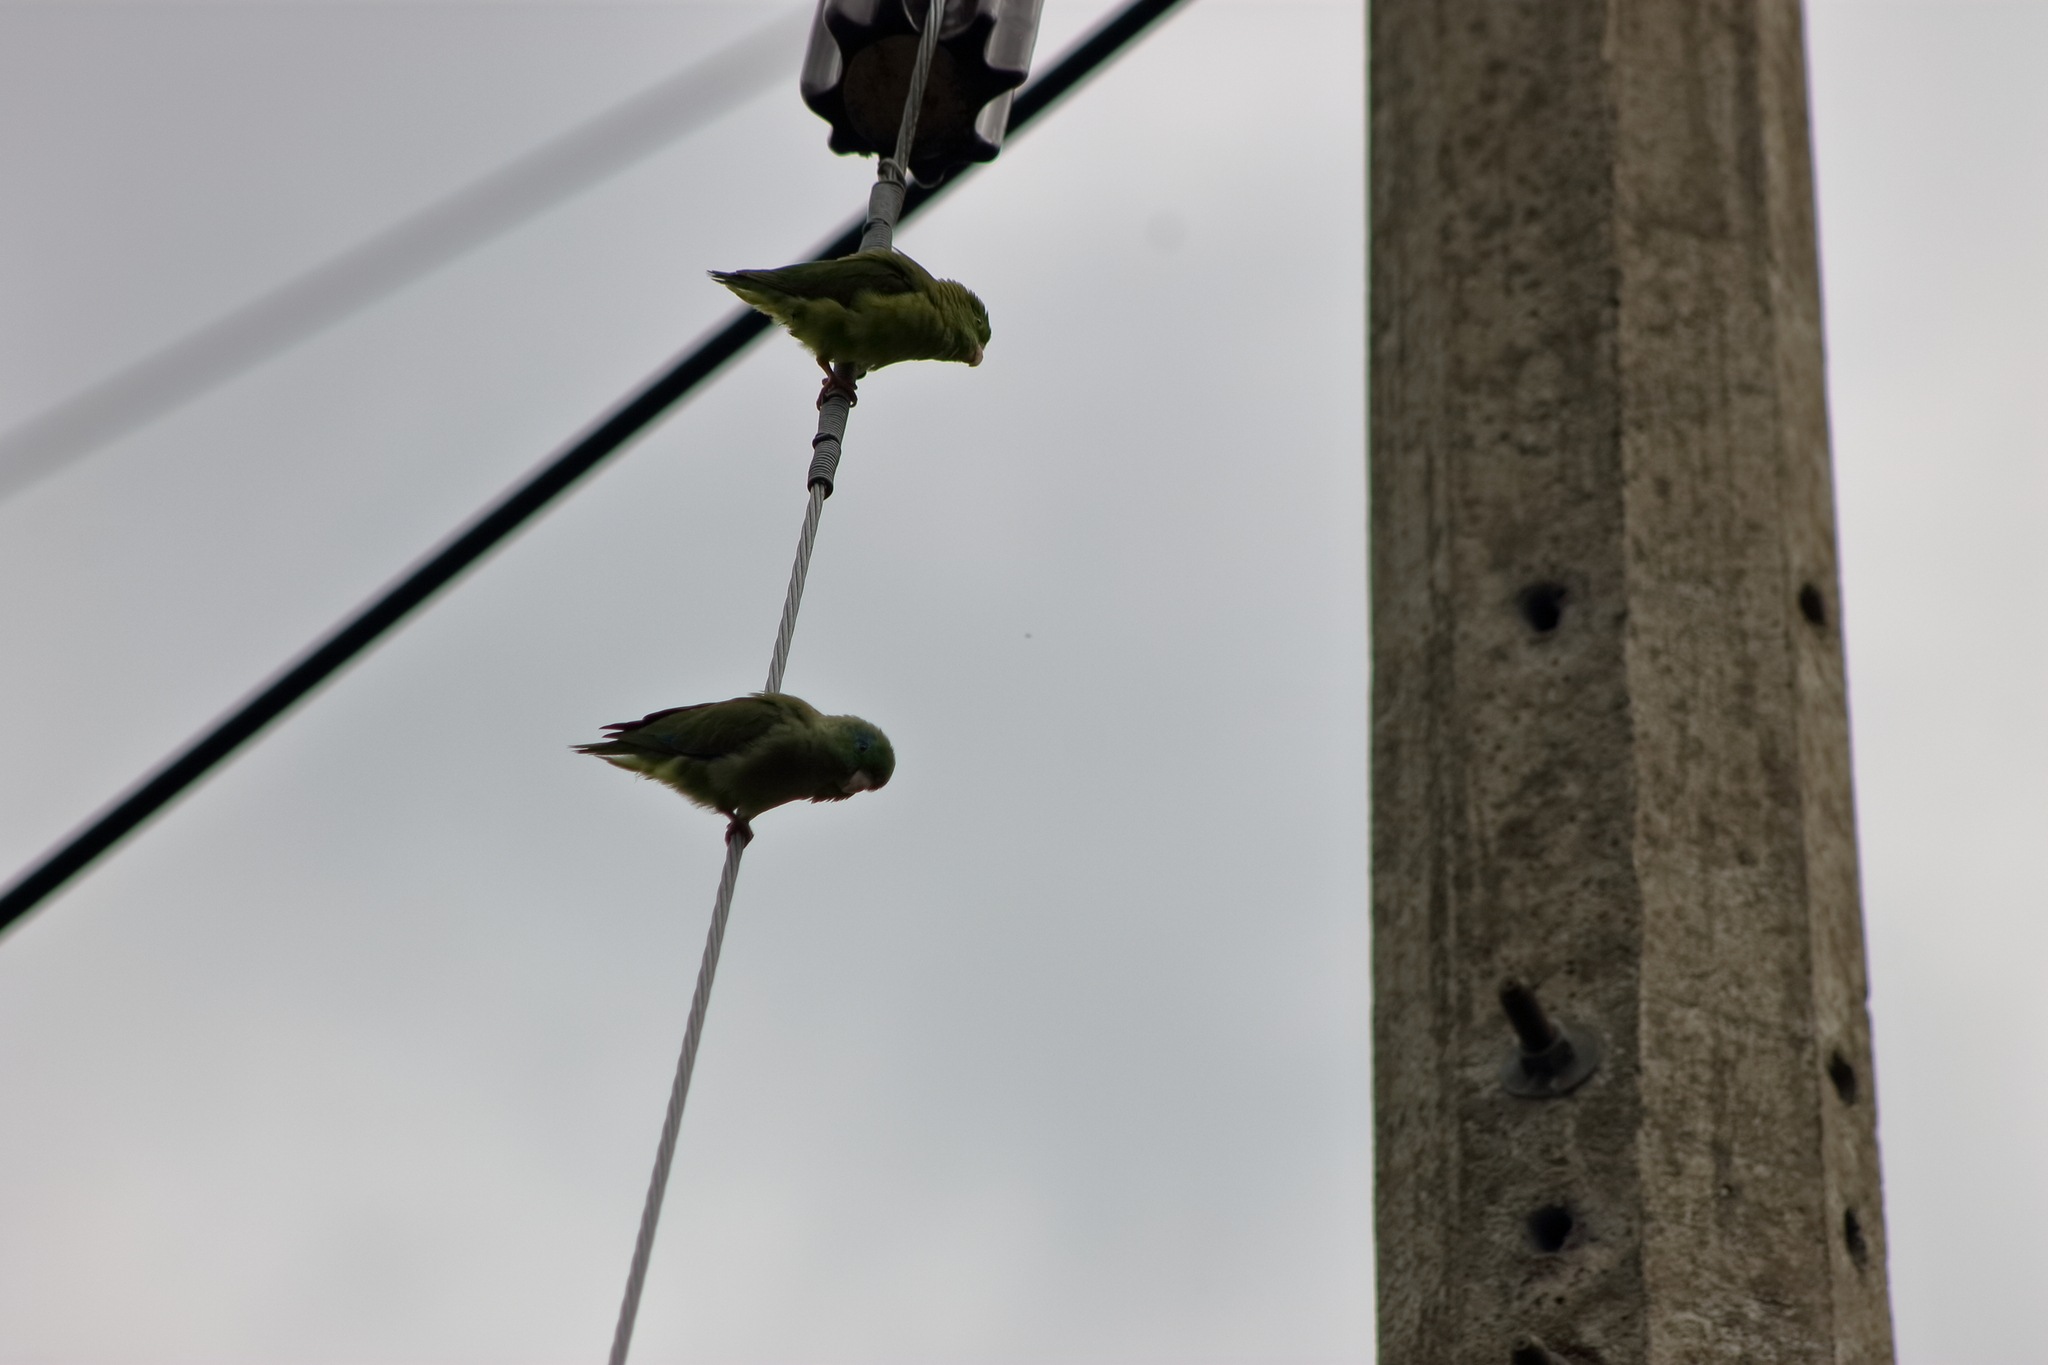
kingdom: Animalia
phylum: Chordata
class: Aves
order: Psittaciformes
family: Psittacidae
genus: Forpus
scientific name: Forpus conspicillatus
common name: Spectacled parrotlet
